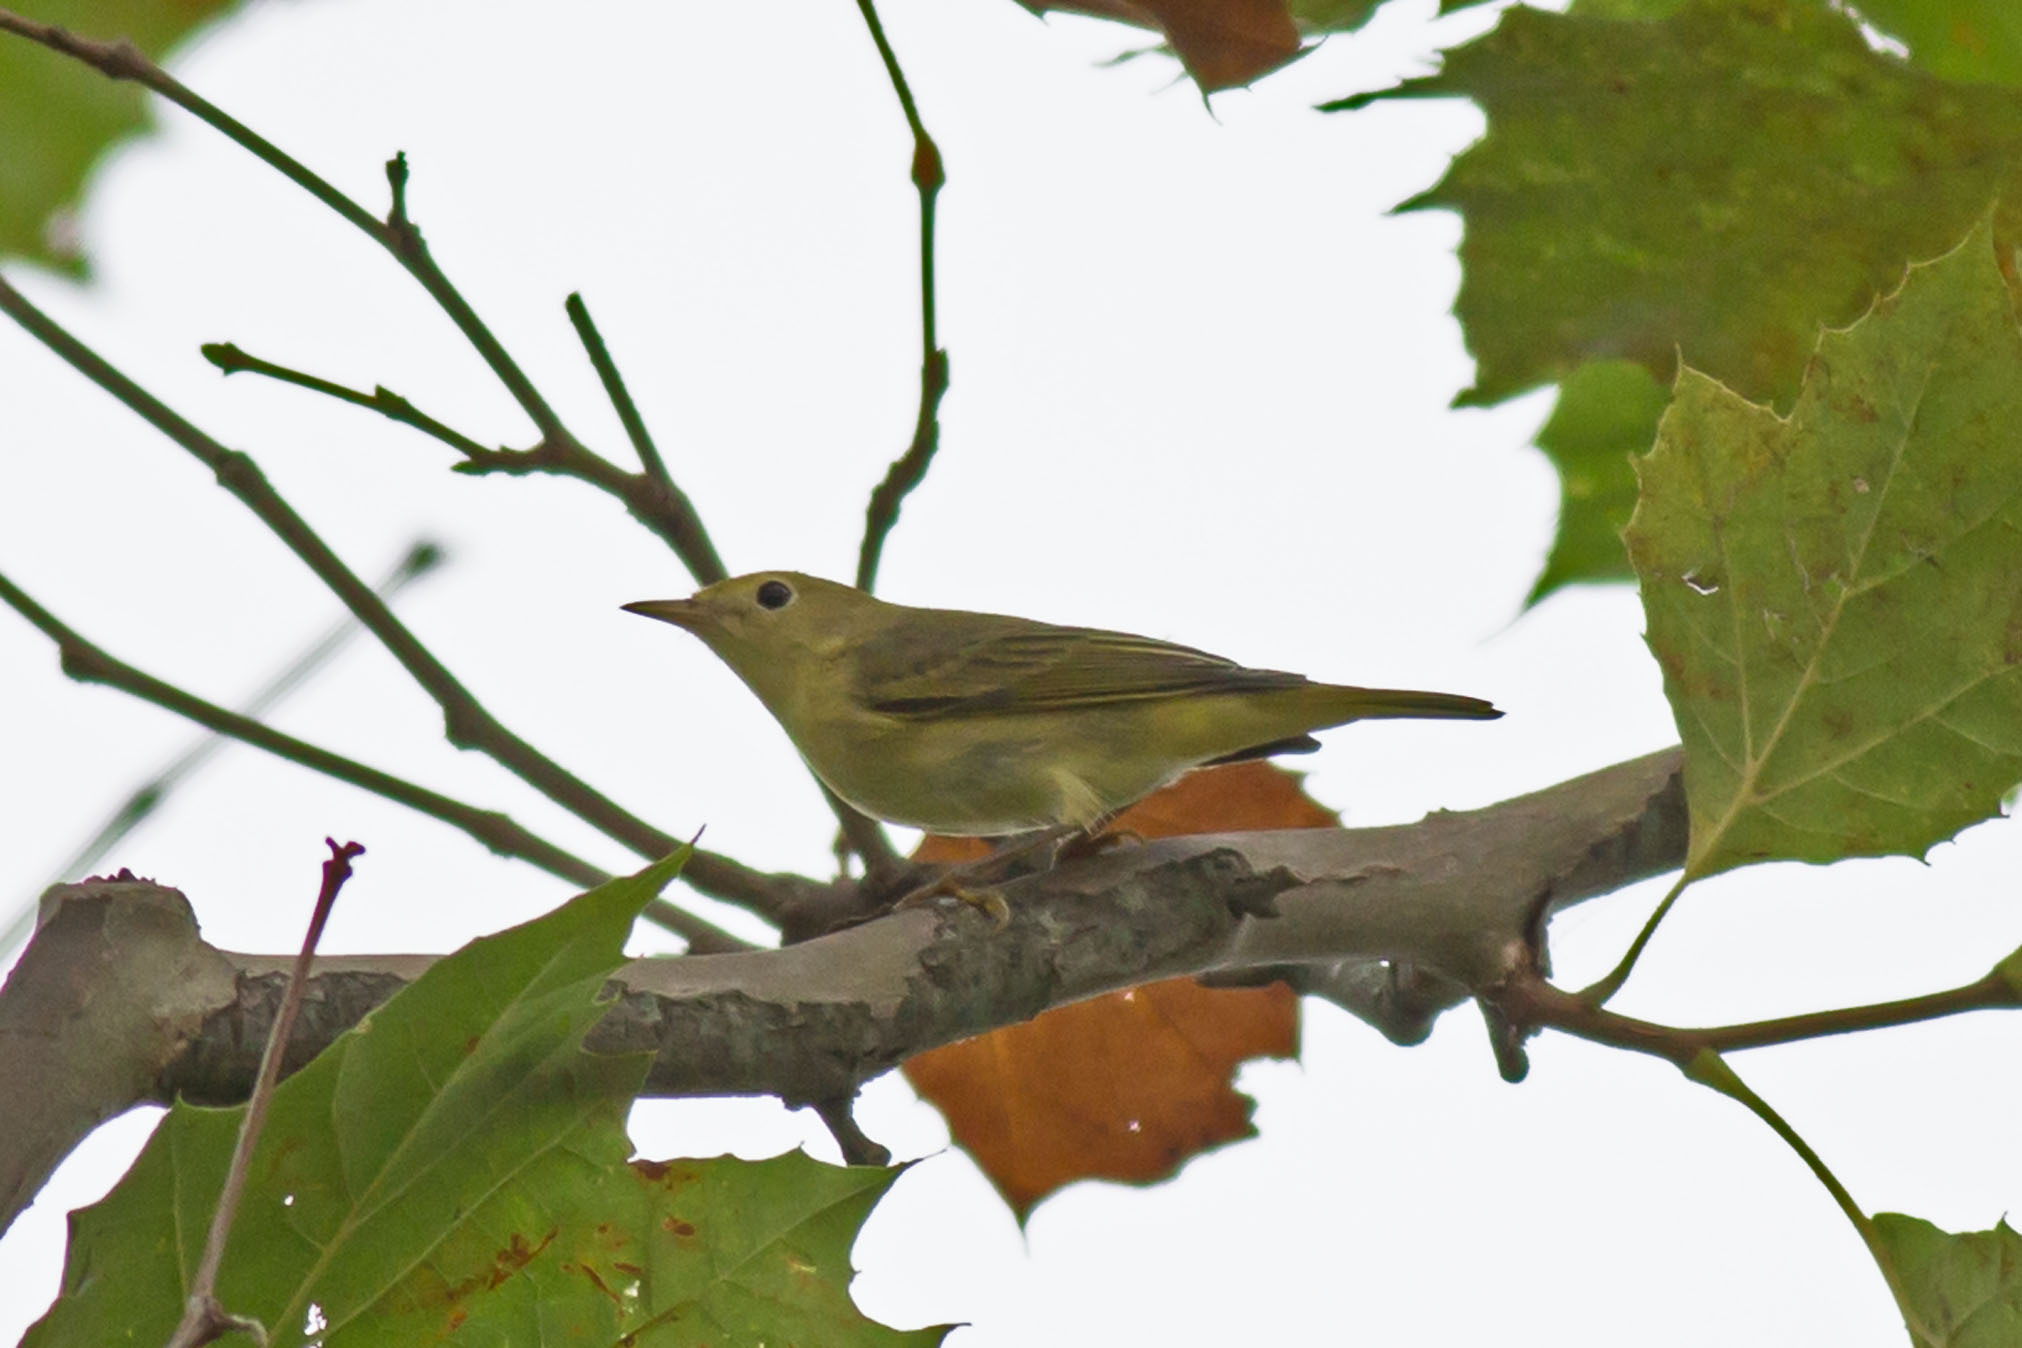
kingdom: Animalia
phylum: Chordata
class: Aves
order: Passeriformes
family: Parulidae
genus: Setophaga
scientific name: Setophaga petechia
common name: Yellow warbler
